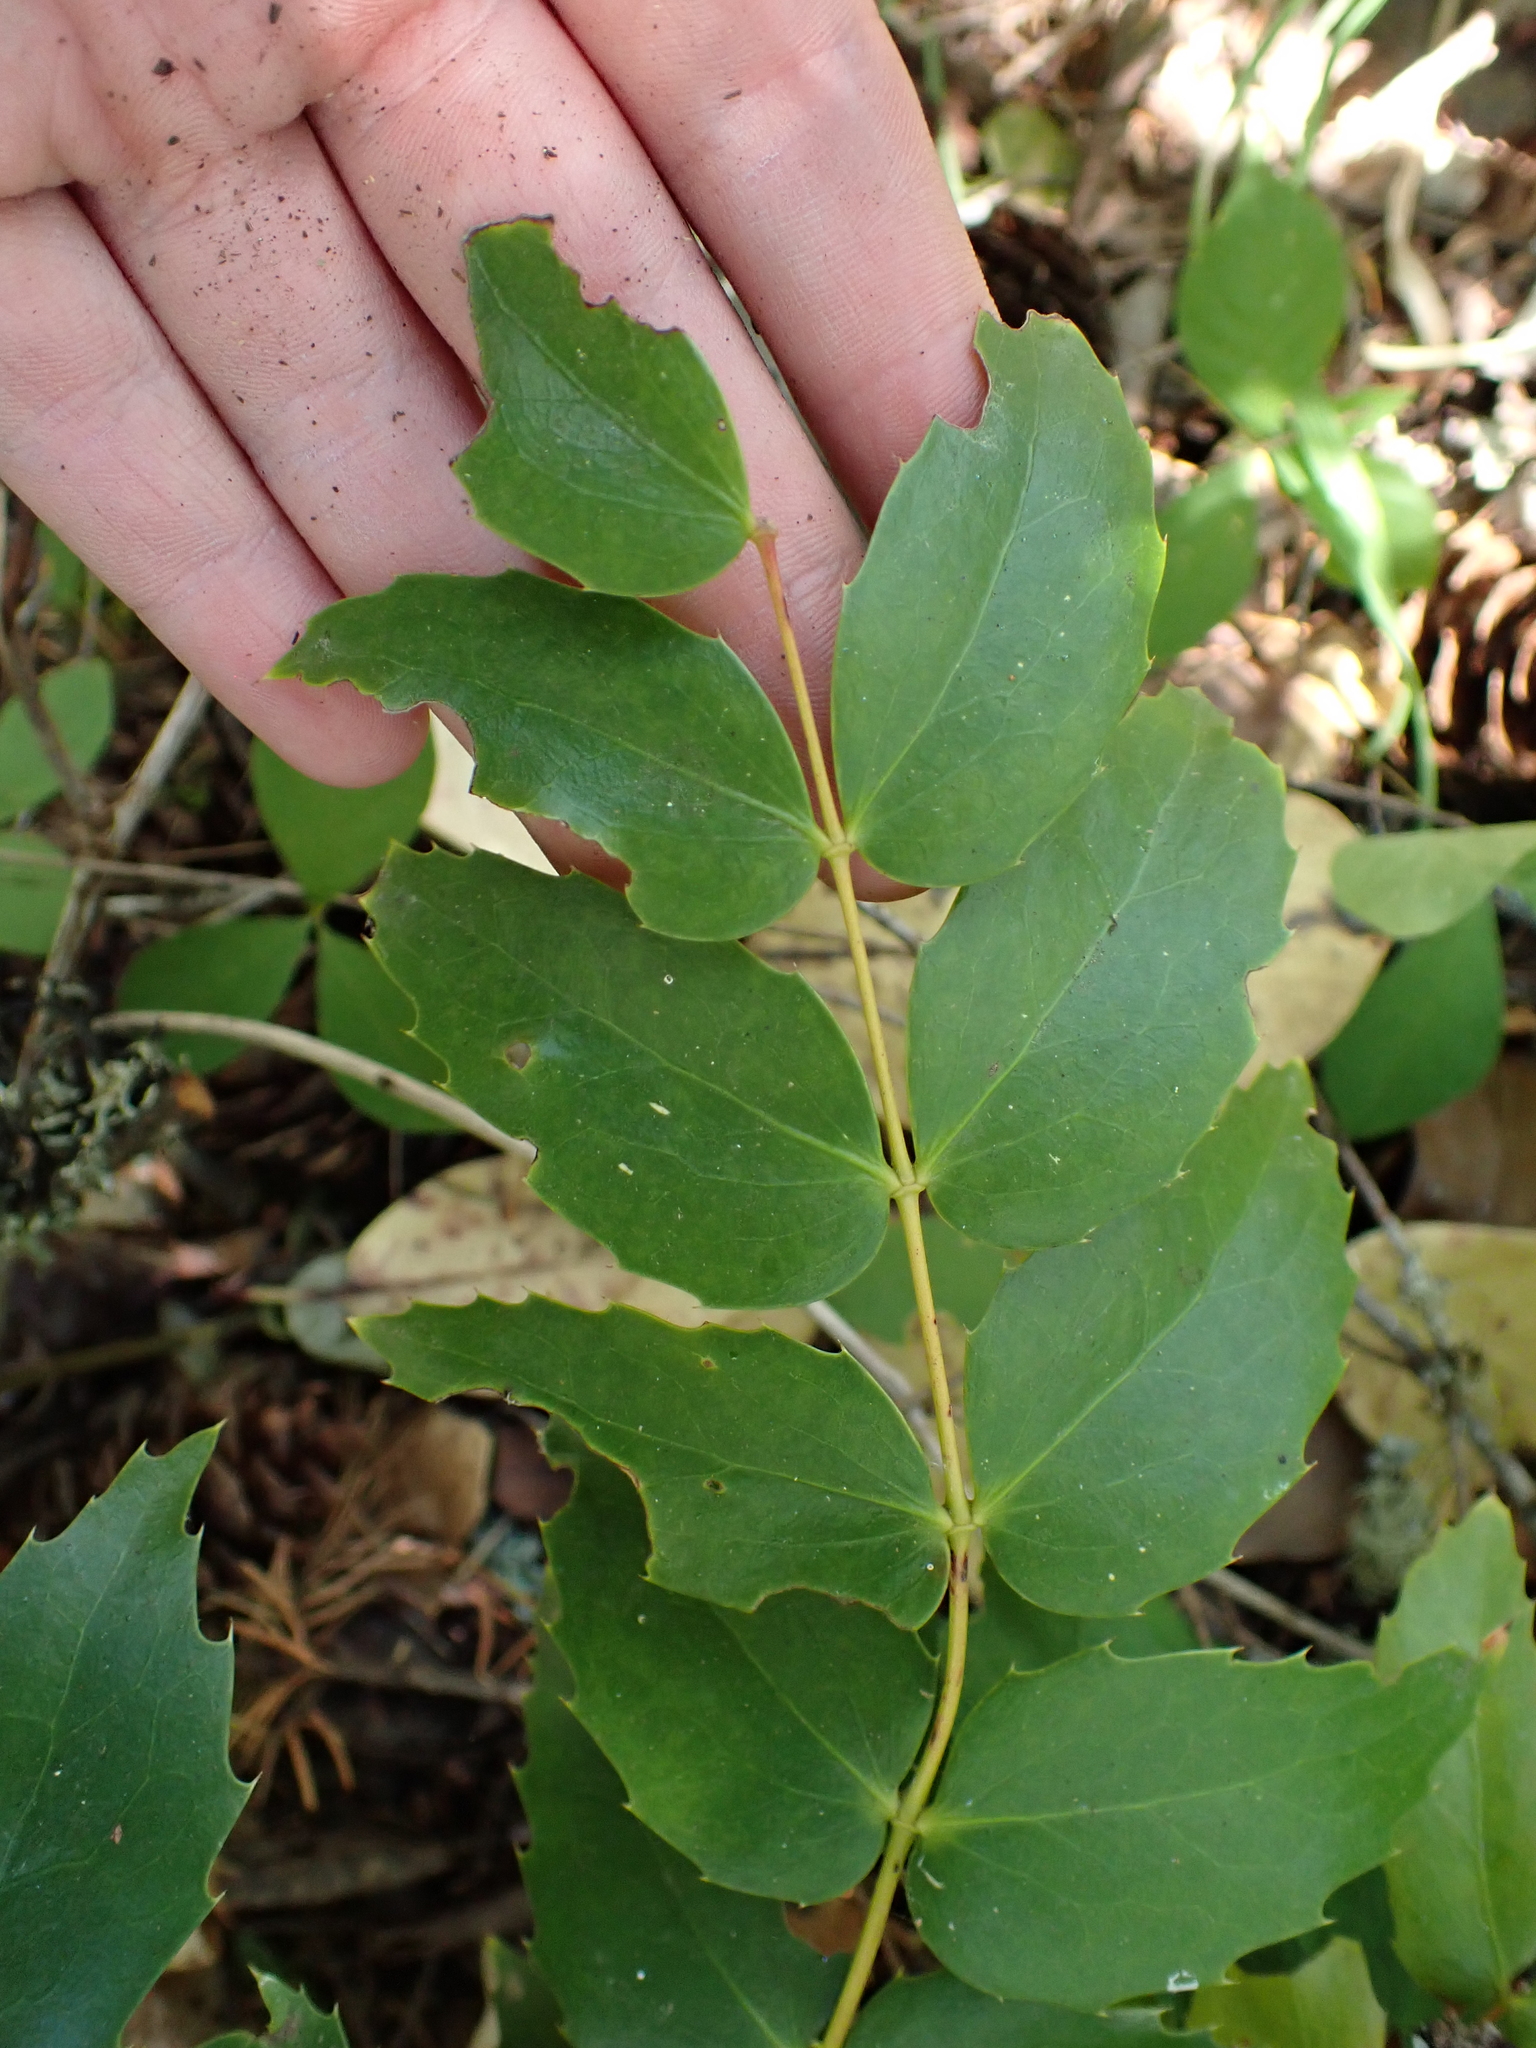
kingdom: Plantae
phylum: Tracheophyta
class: Magnoliopsida
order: Ranunculales
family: Berberidaceae
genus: Mahonia
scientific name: Mahonia nervosa
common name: Cascade oregon-grape
